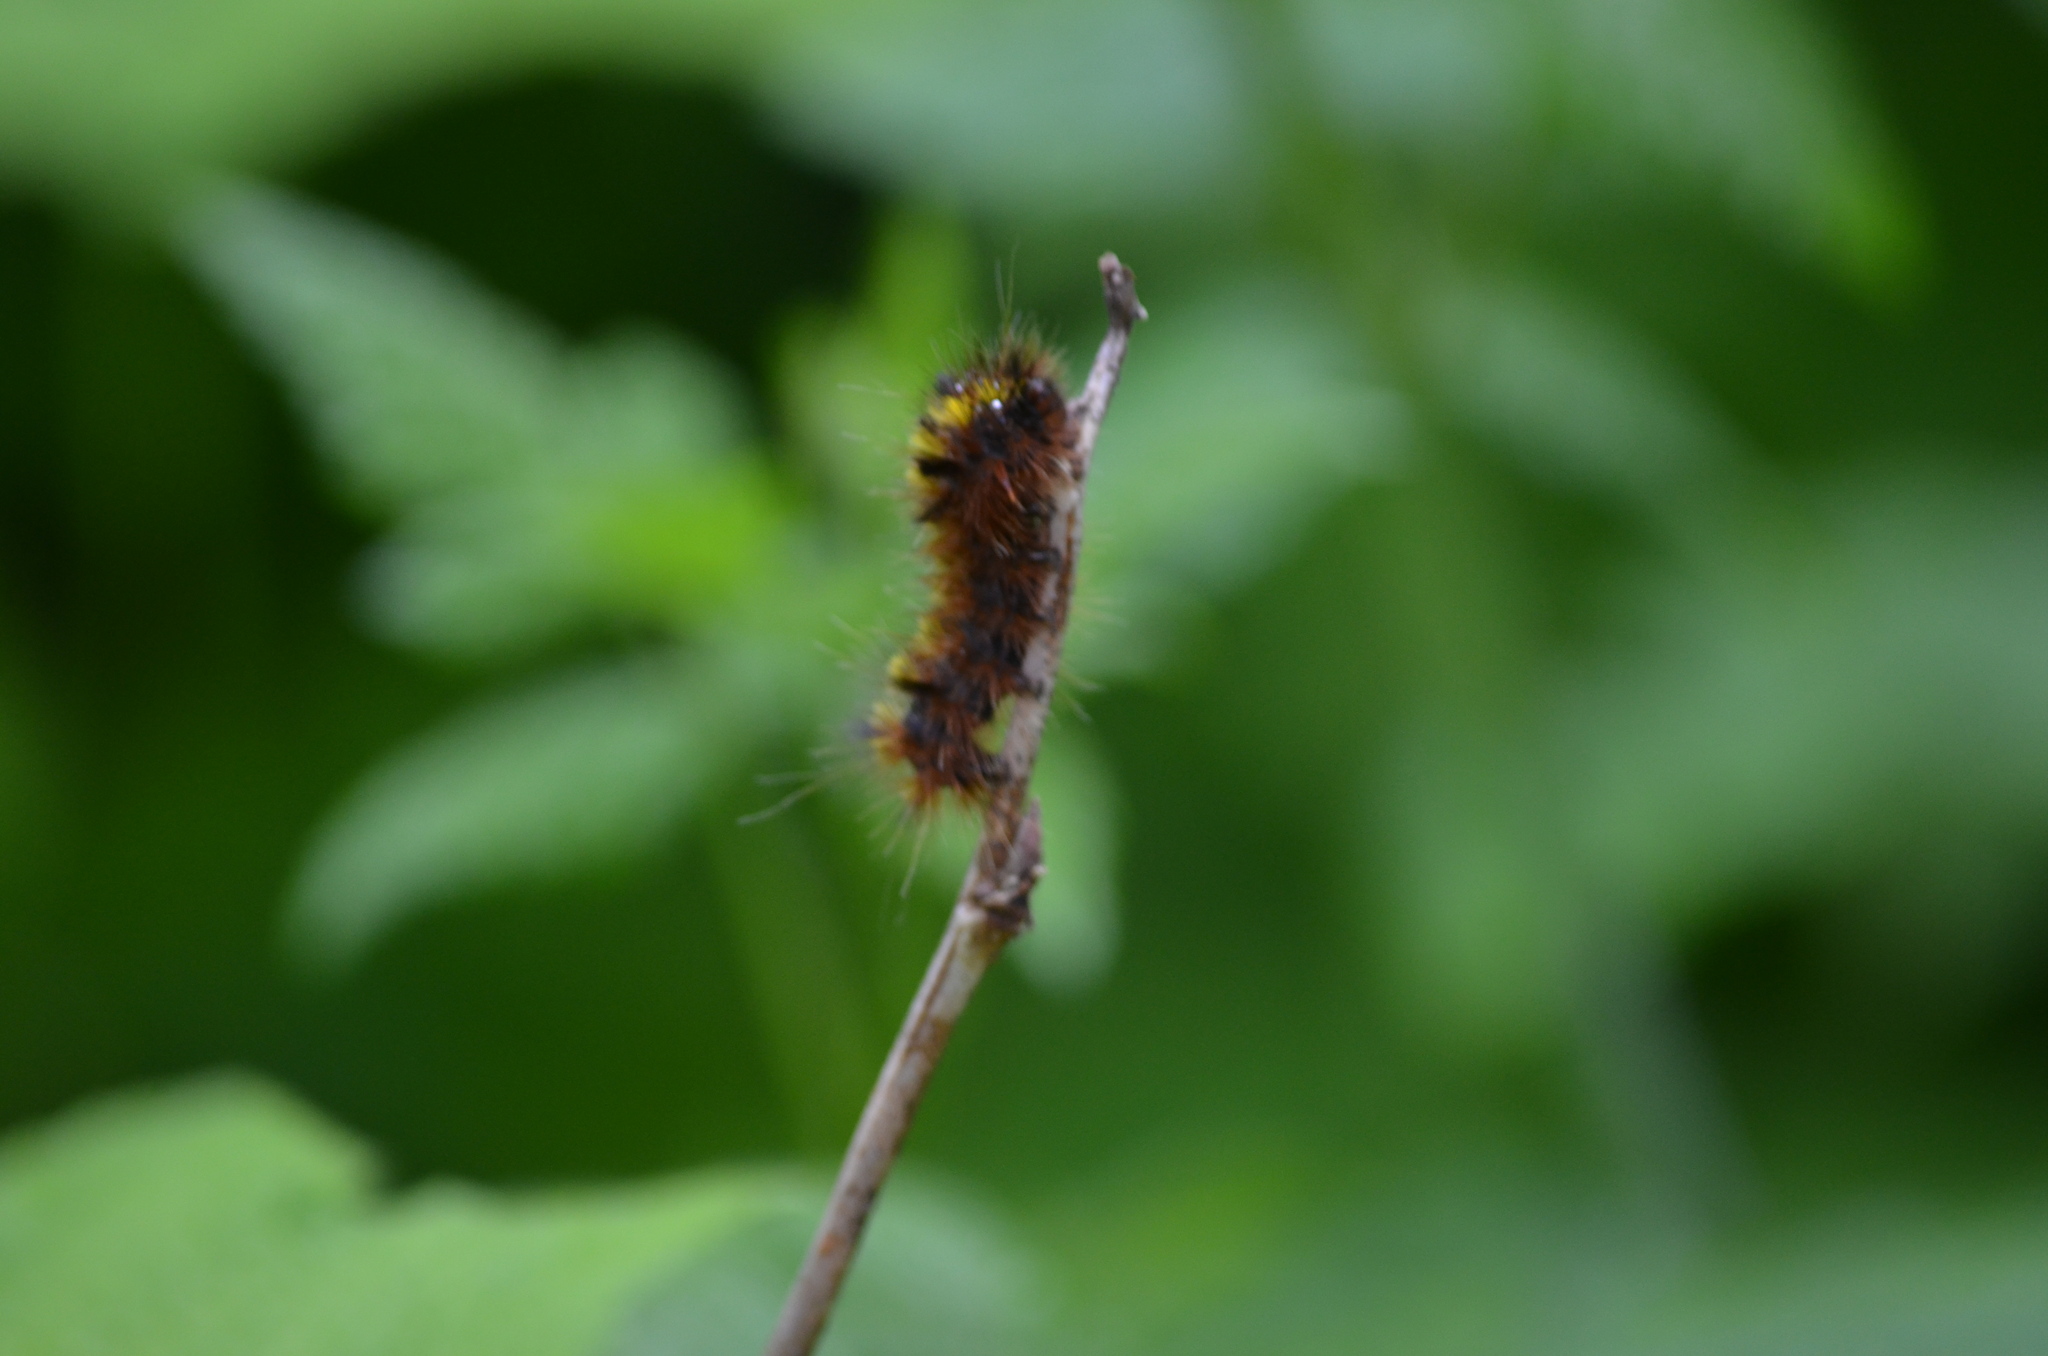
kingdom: Animalia
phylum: Arthropoda
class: Insecta
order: Lepidoptera
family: Erebidae
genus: Lophocampa
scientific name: Lophocampa argentata
